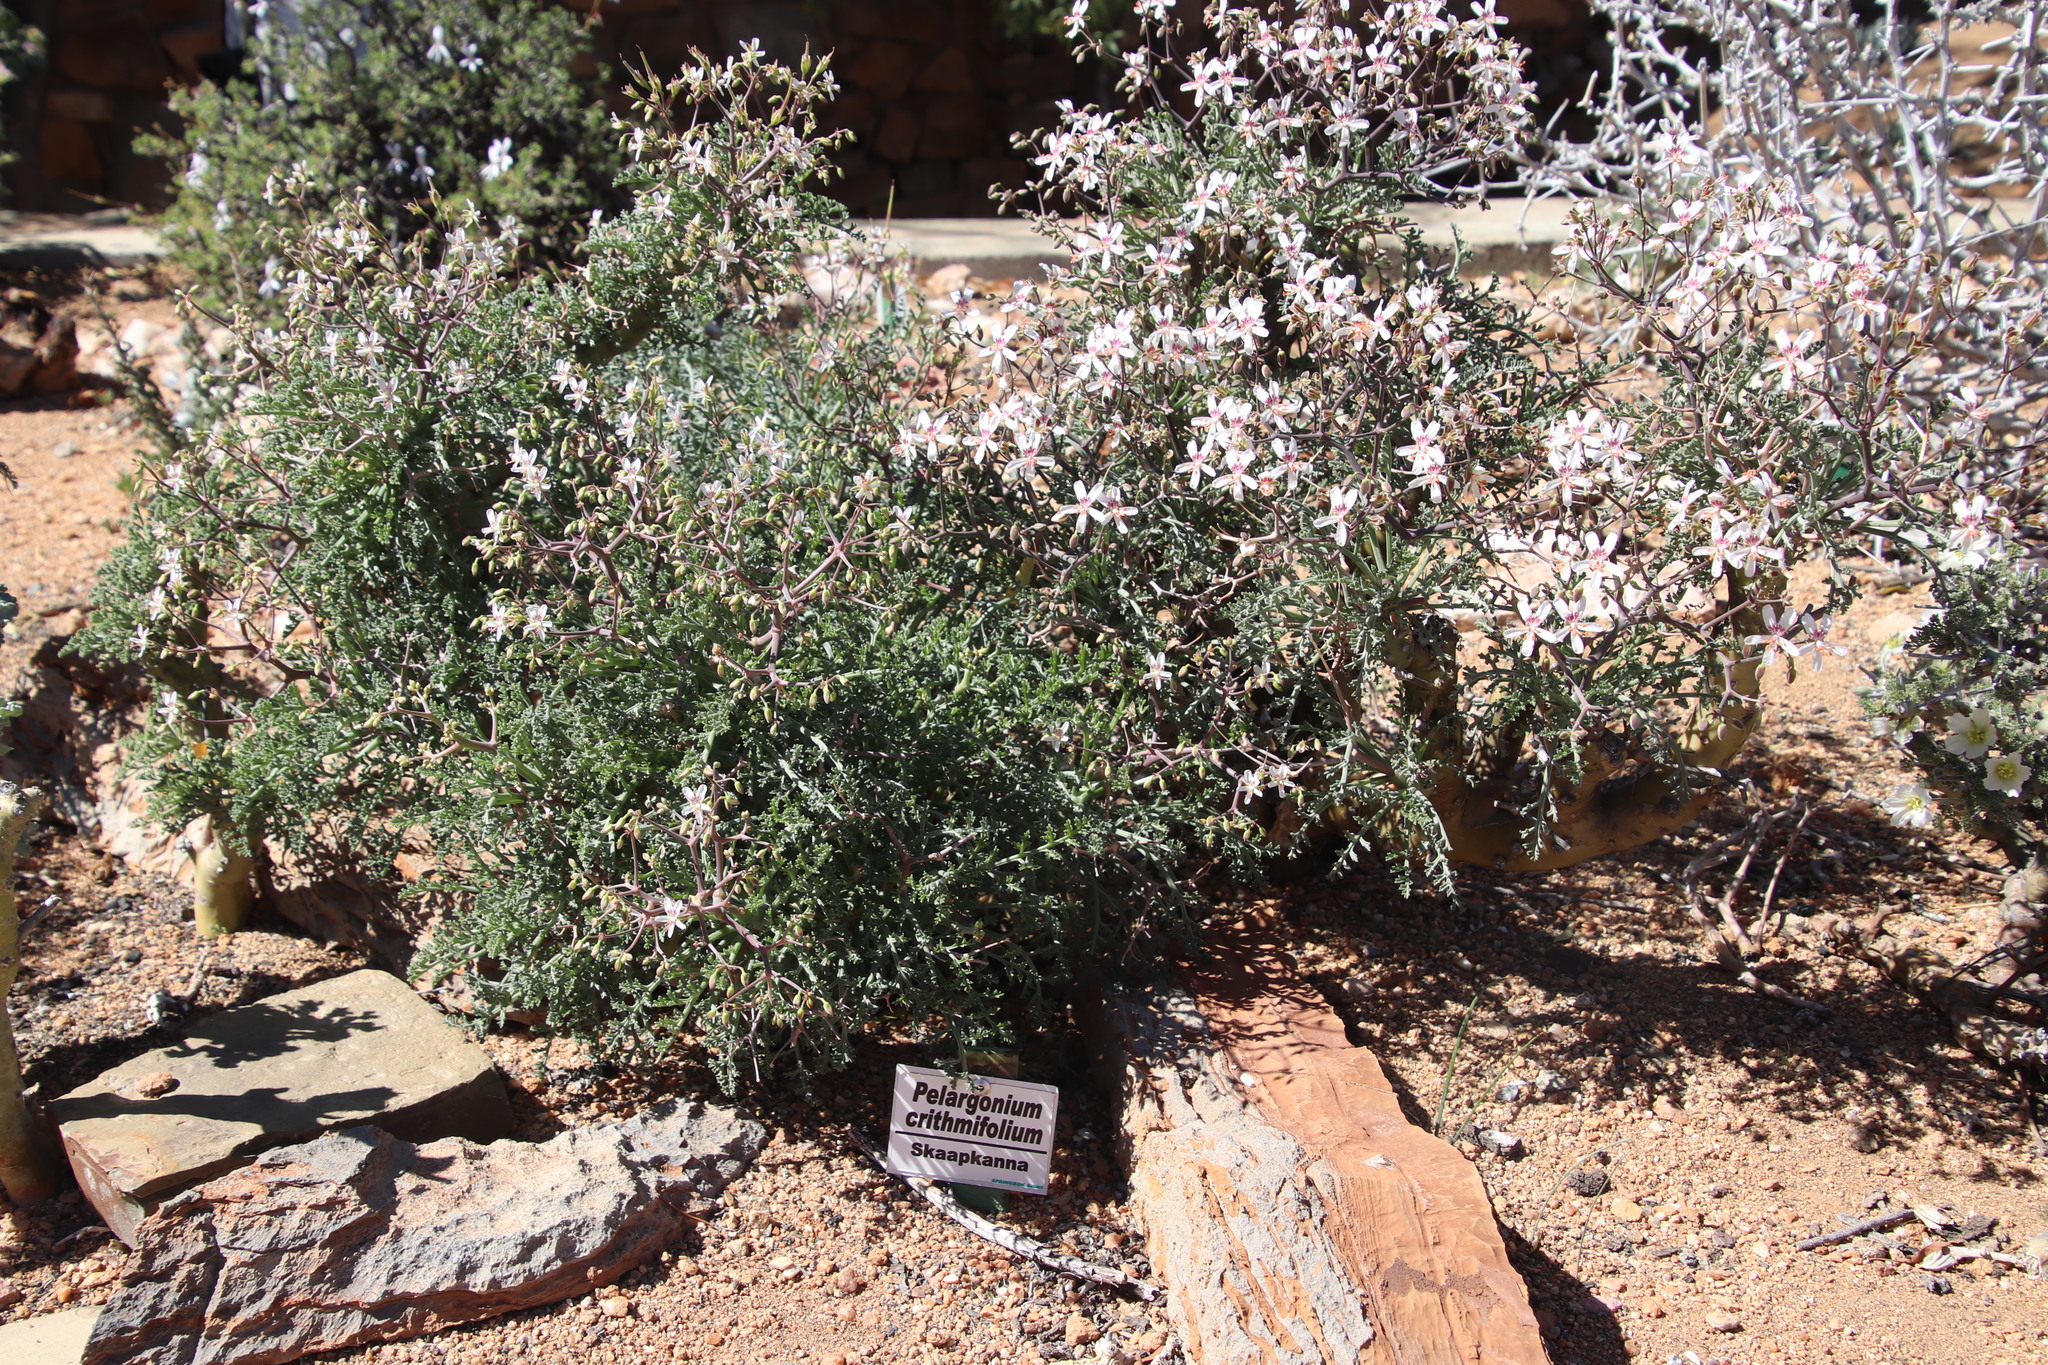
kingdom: Plantae
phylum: Tracheophyta
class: Magnoliopsida
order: Geraniales
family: Geraniaceae
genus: Pelargonium
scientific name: Pelargonium crithmifolium
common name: Samphire-leaf pelargonium
